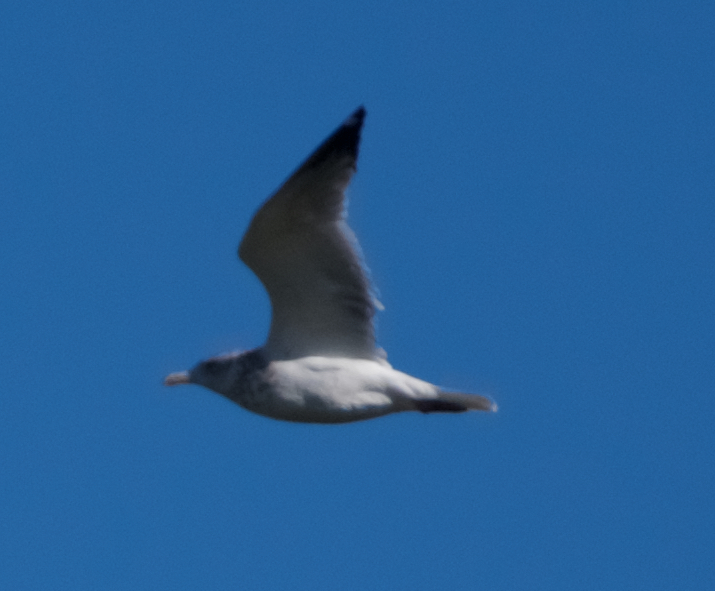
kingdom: Animalia
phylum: Chordata
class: Aves
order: Charadriiformes
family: Laridae
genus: Larus
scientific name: Larus argentatus
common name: Herring gull
